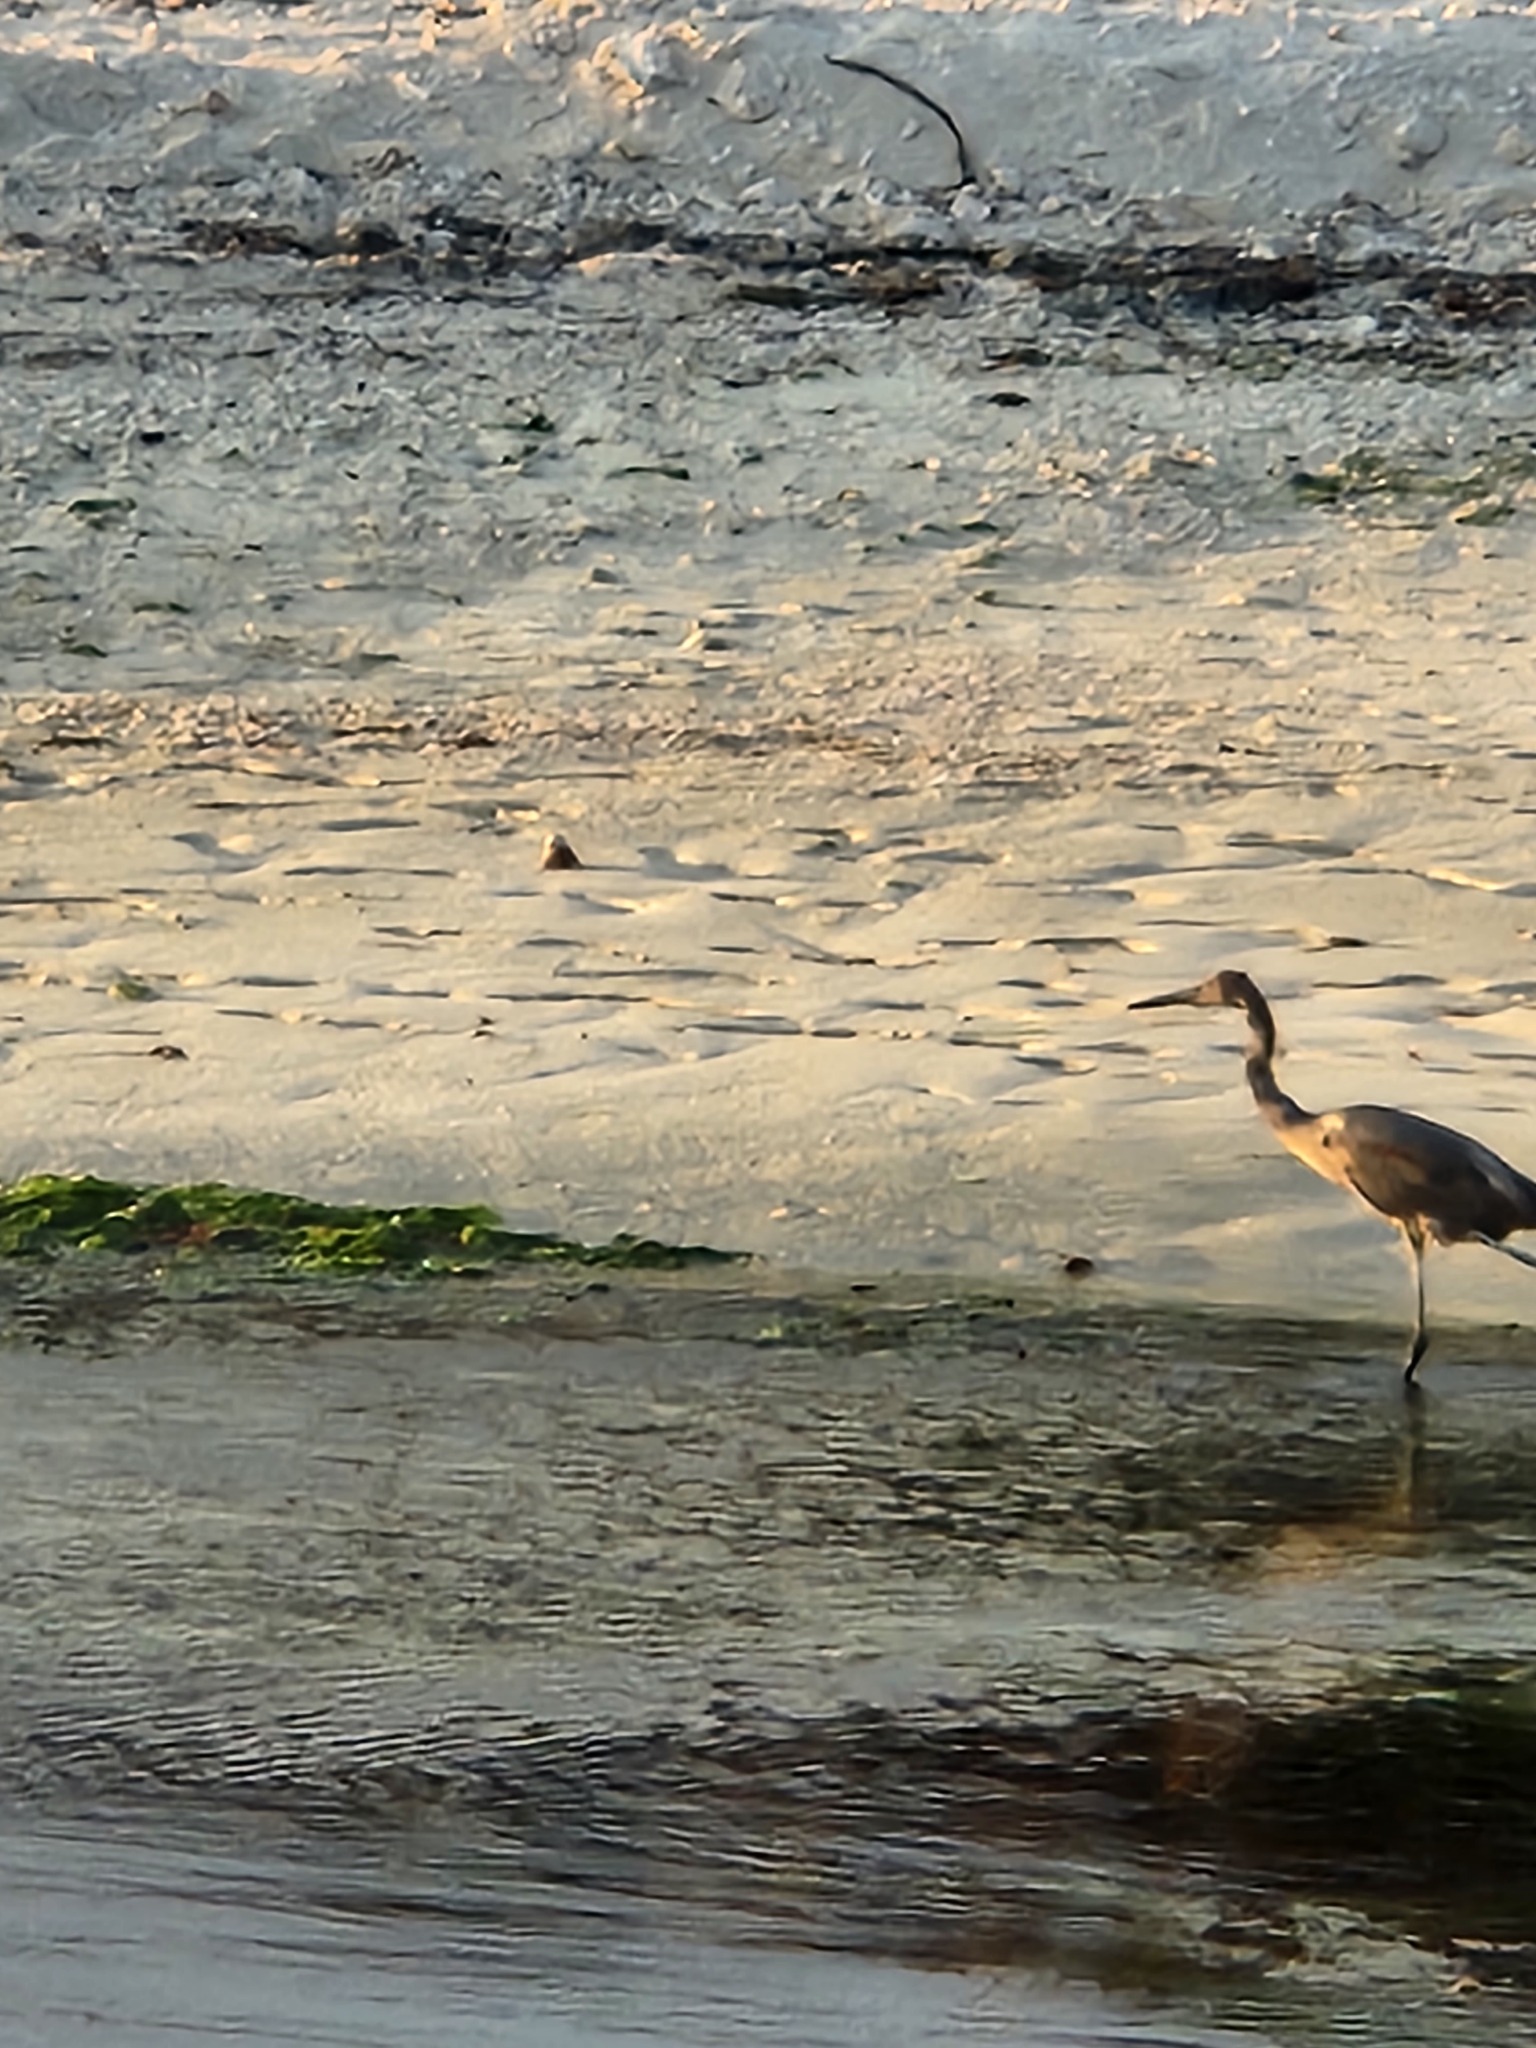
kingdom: Animalia
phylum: Chordata
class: Aves
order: Pelecaniformes
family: Ardeidae
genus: Egretta
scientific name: Egretta rufescens
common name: Reddish egret
